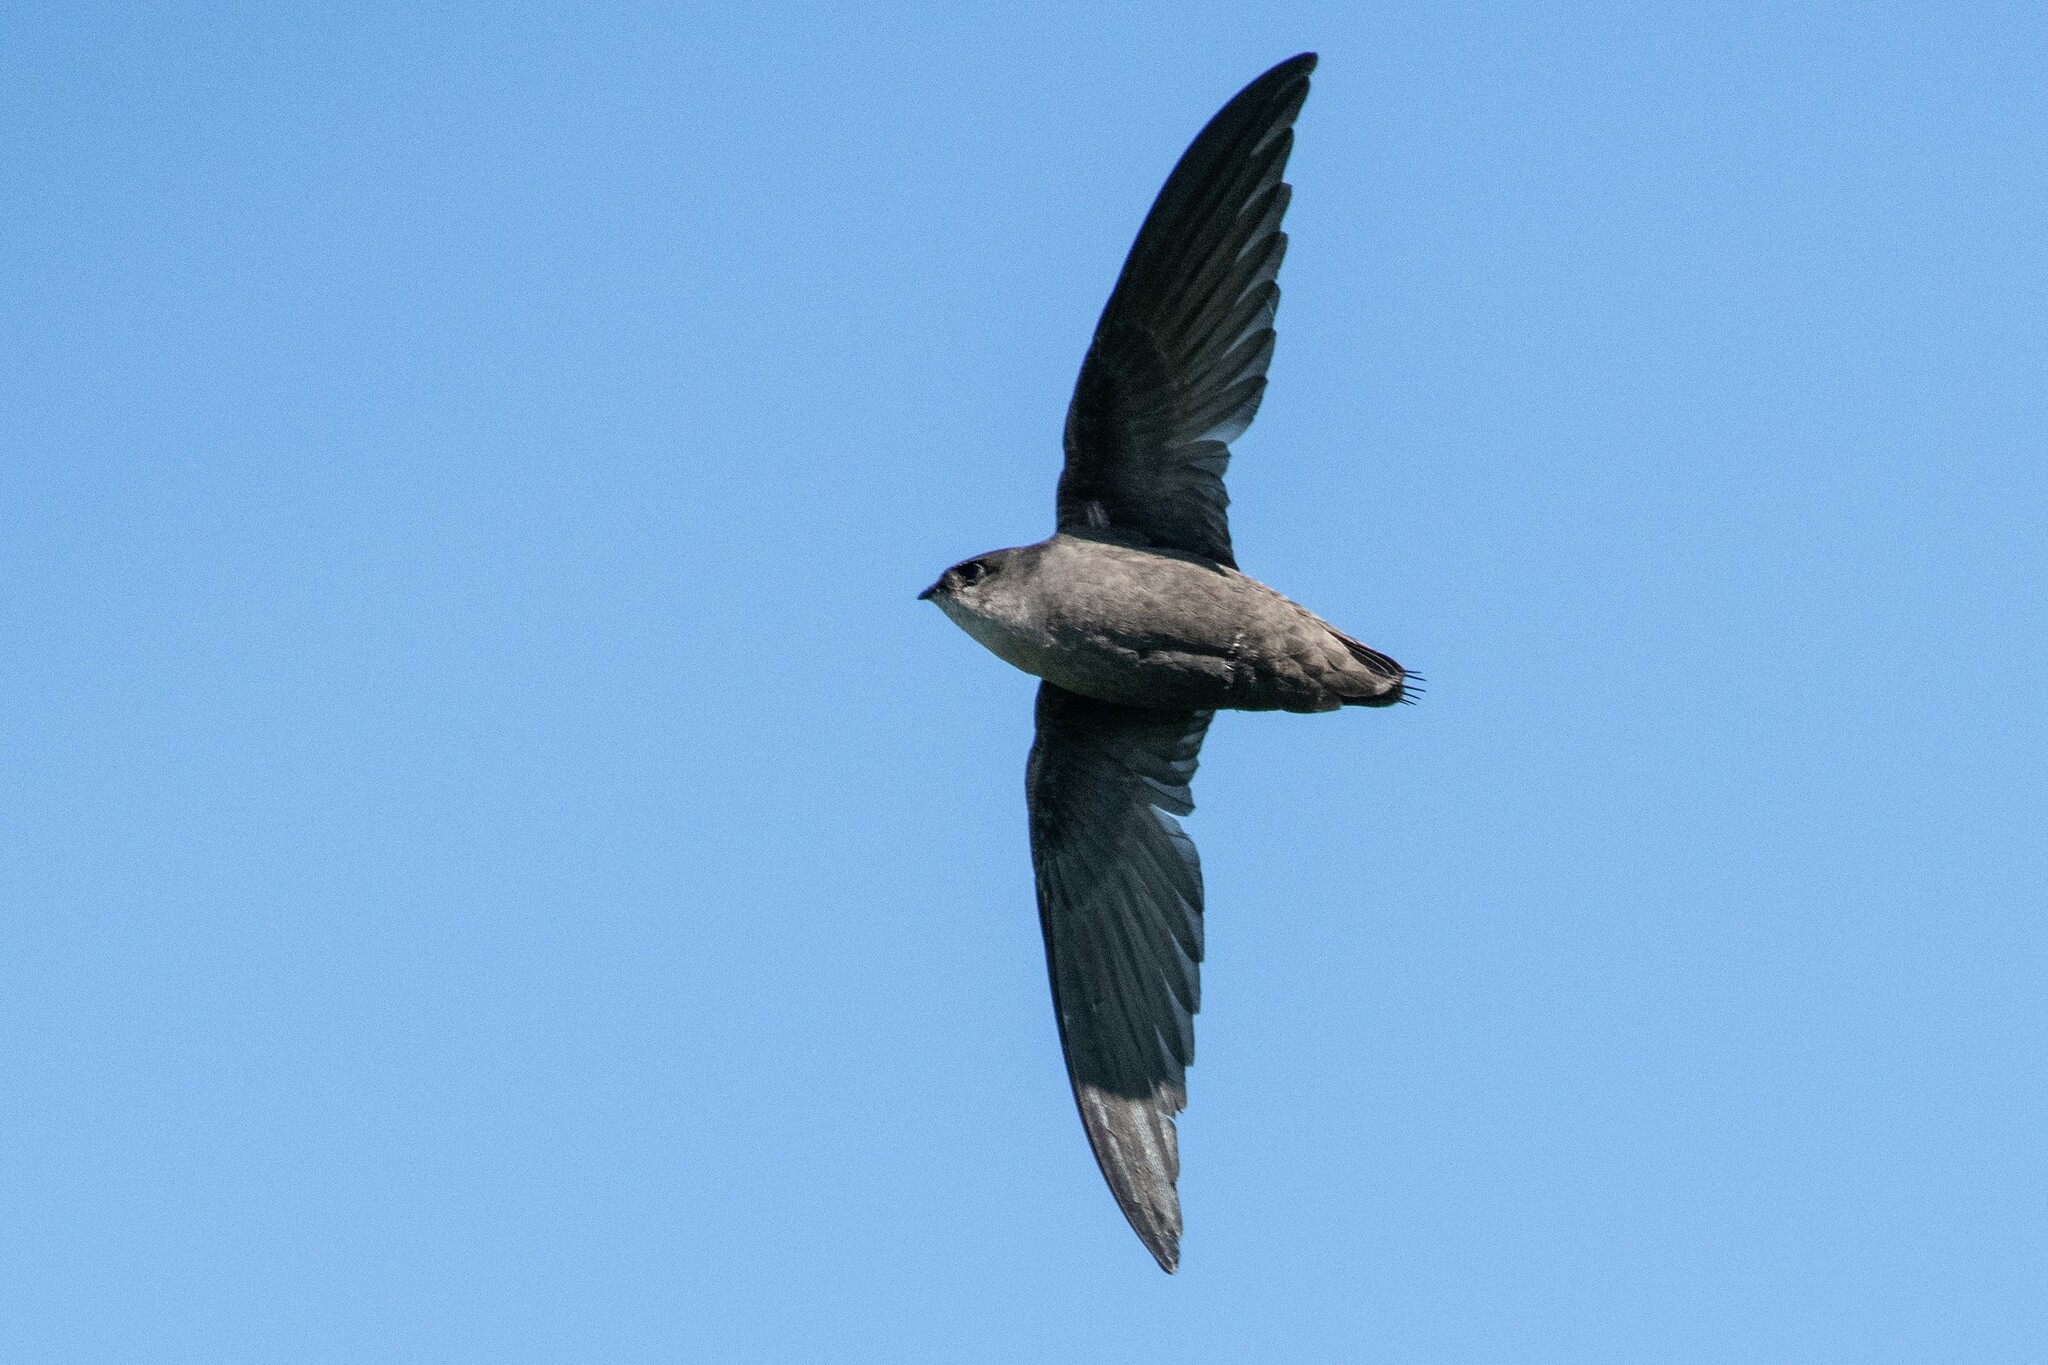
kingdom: Animalia
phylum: Chordata
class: Aves
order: Apodiformes
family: Apodidae
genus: Chaetura
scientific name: Chaetura pelagica
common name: Chimney swift
